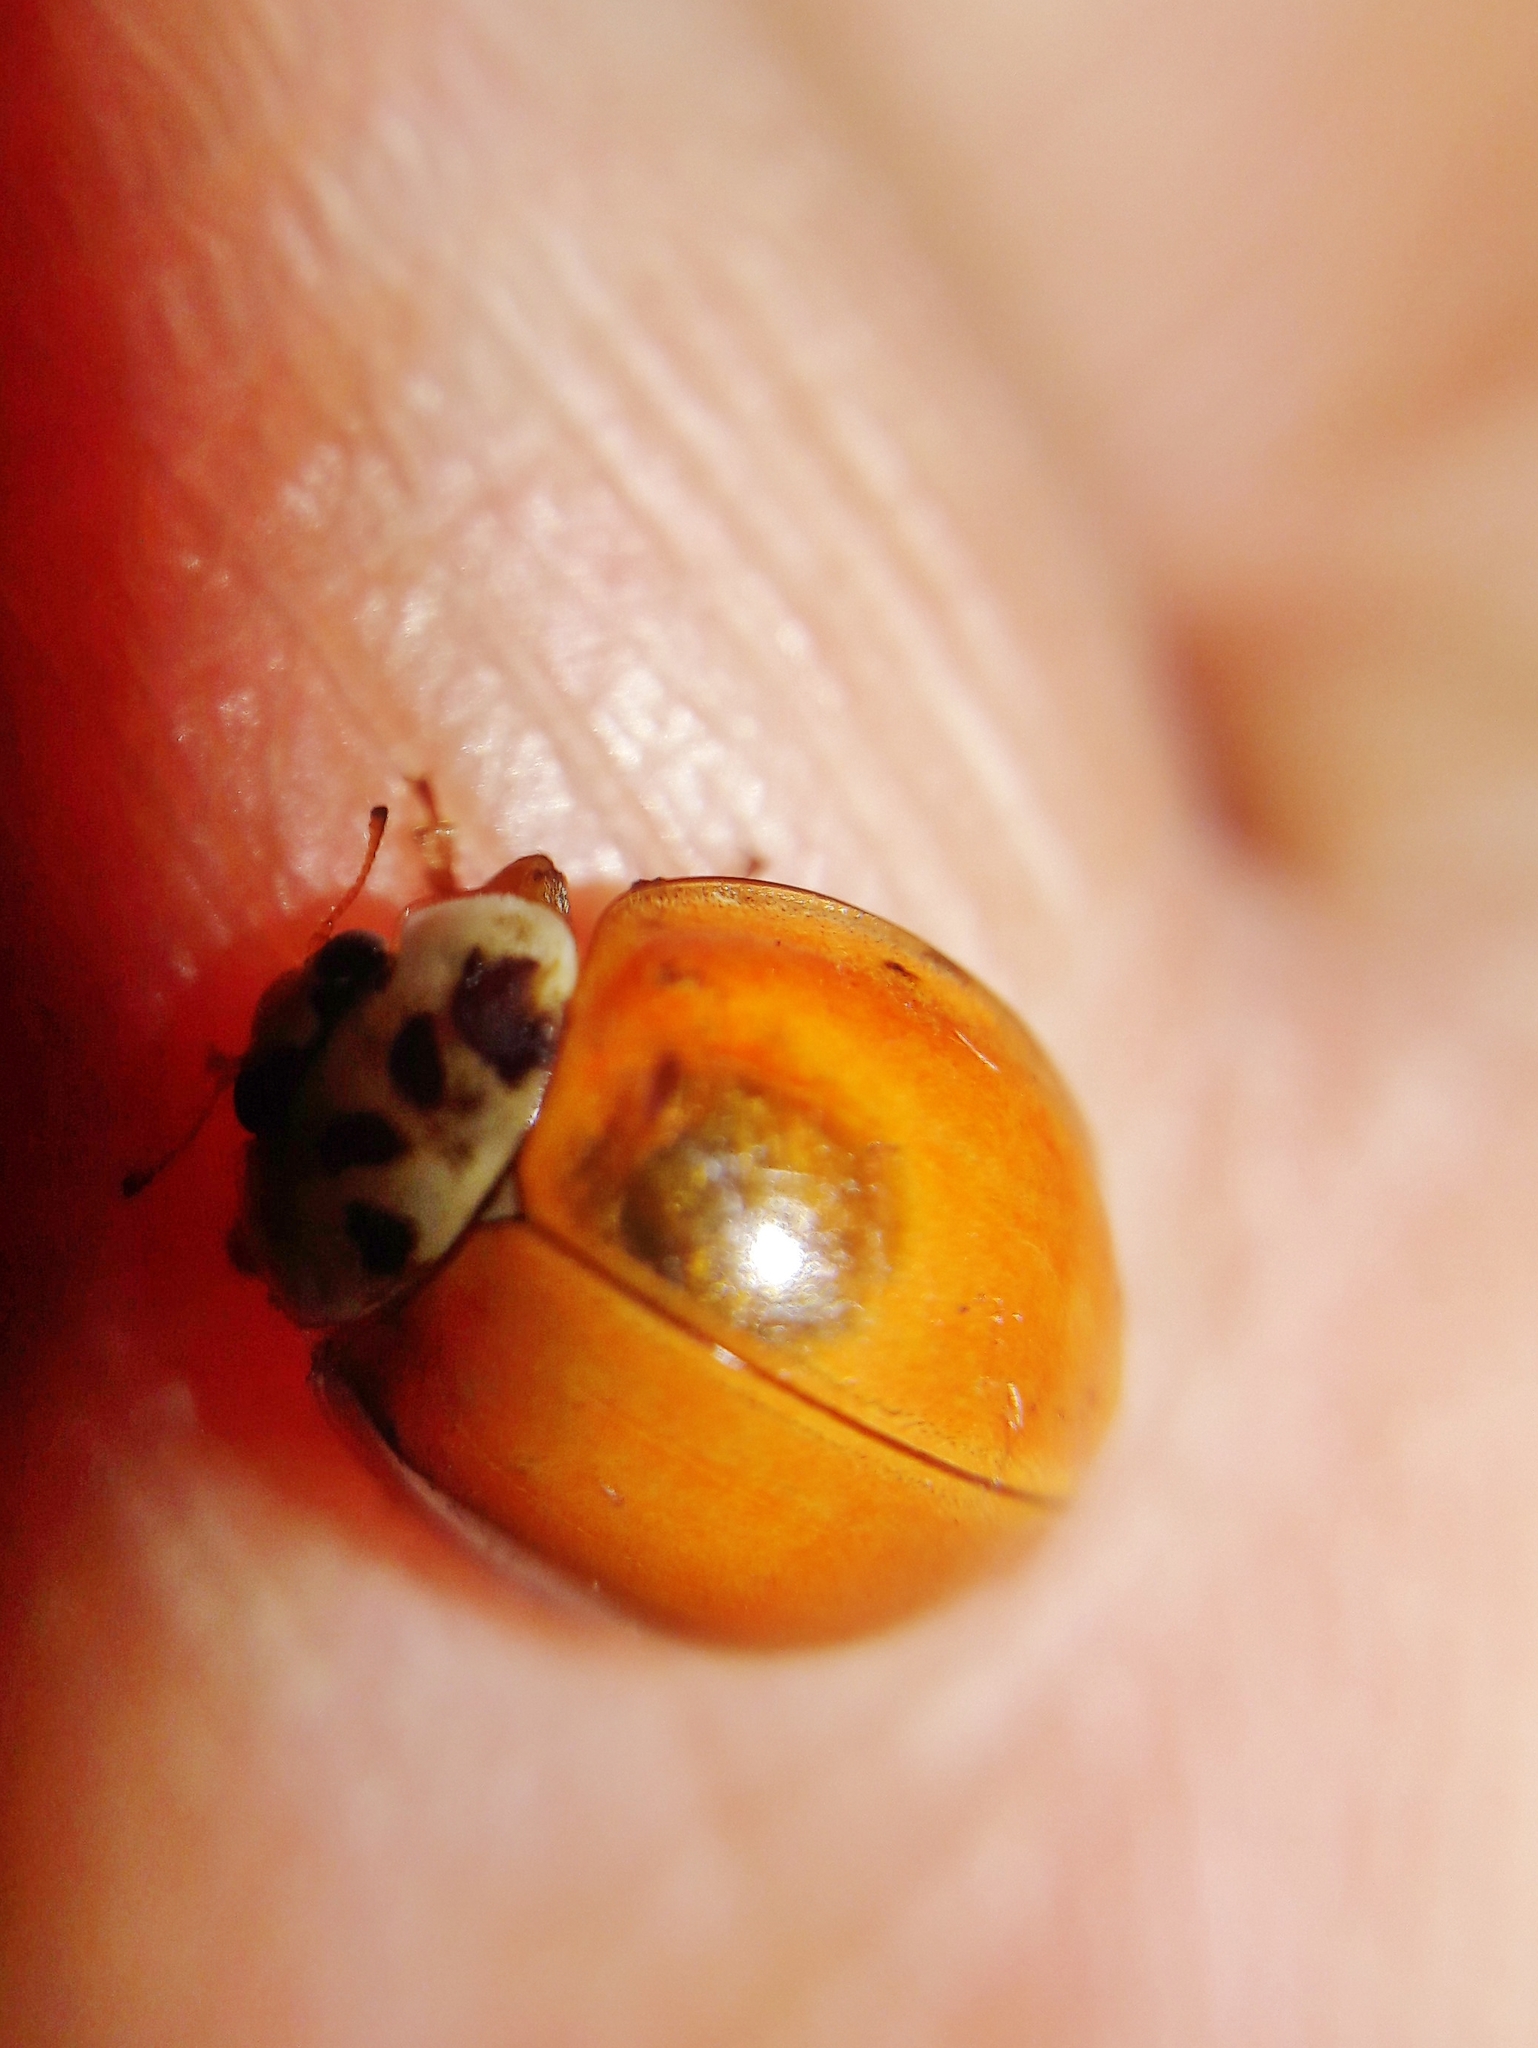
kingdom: Animalia
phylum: Arthropoda
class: Insecta
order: Coleoptera
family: Coccinellidae
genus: Harmonia
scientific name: Harmonia axyridis
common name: Harlequin ladybird
